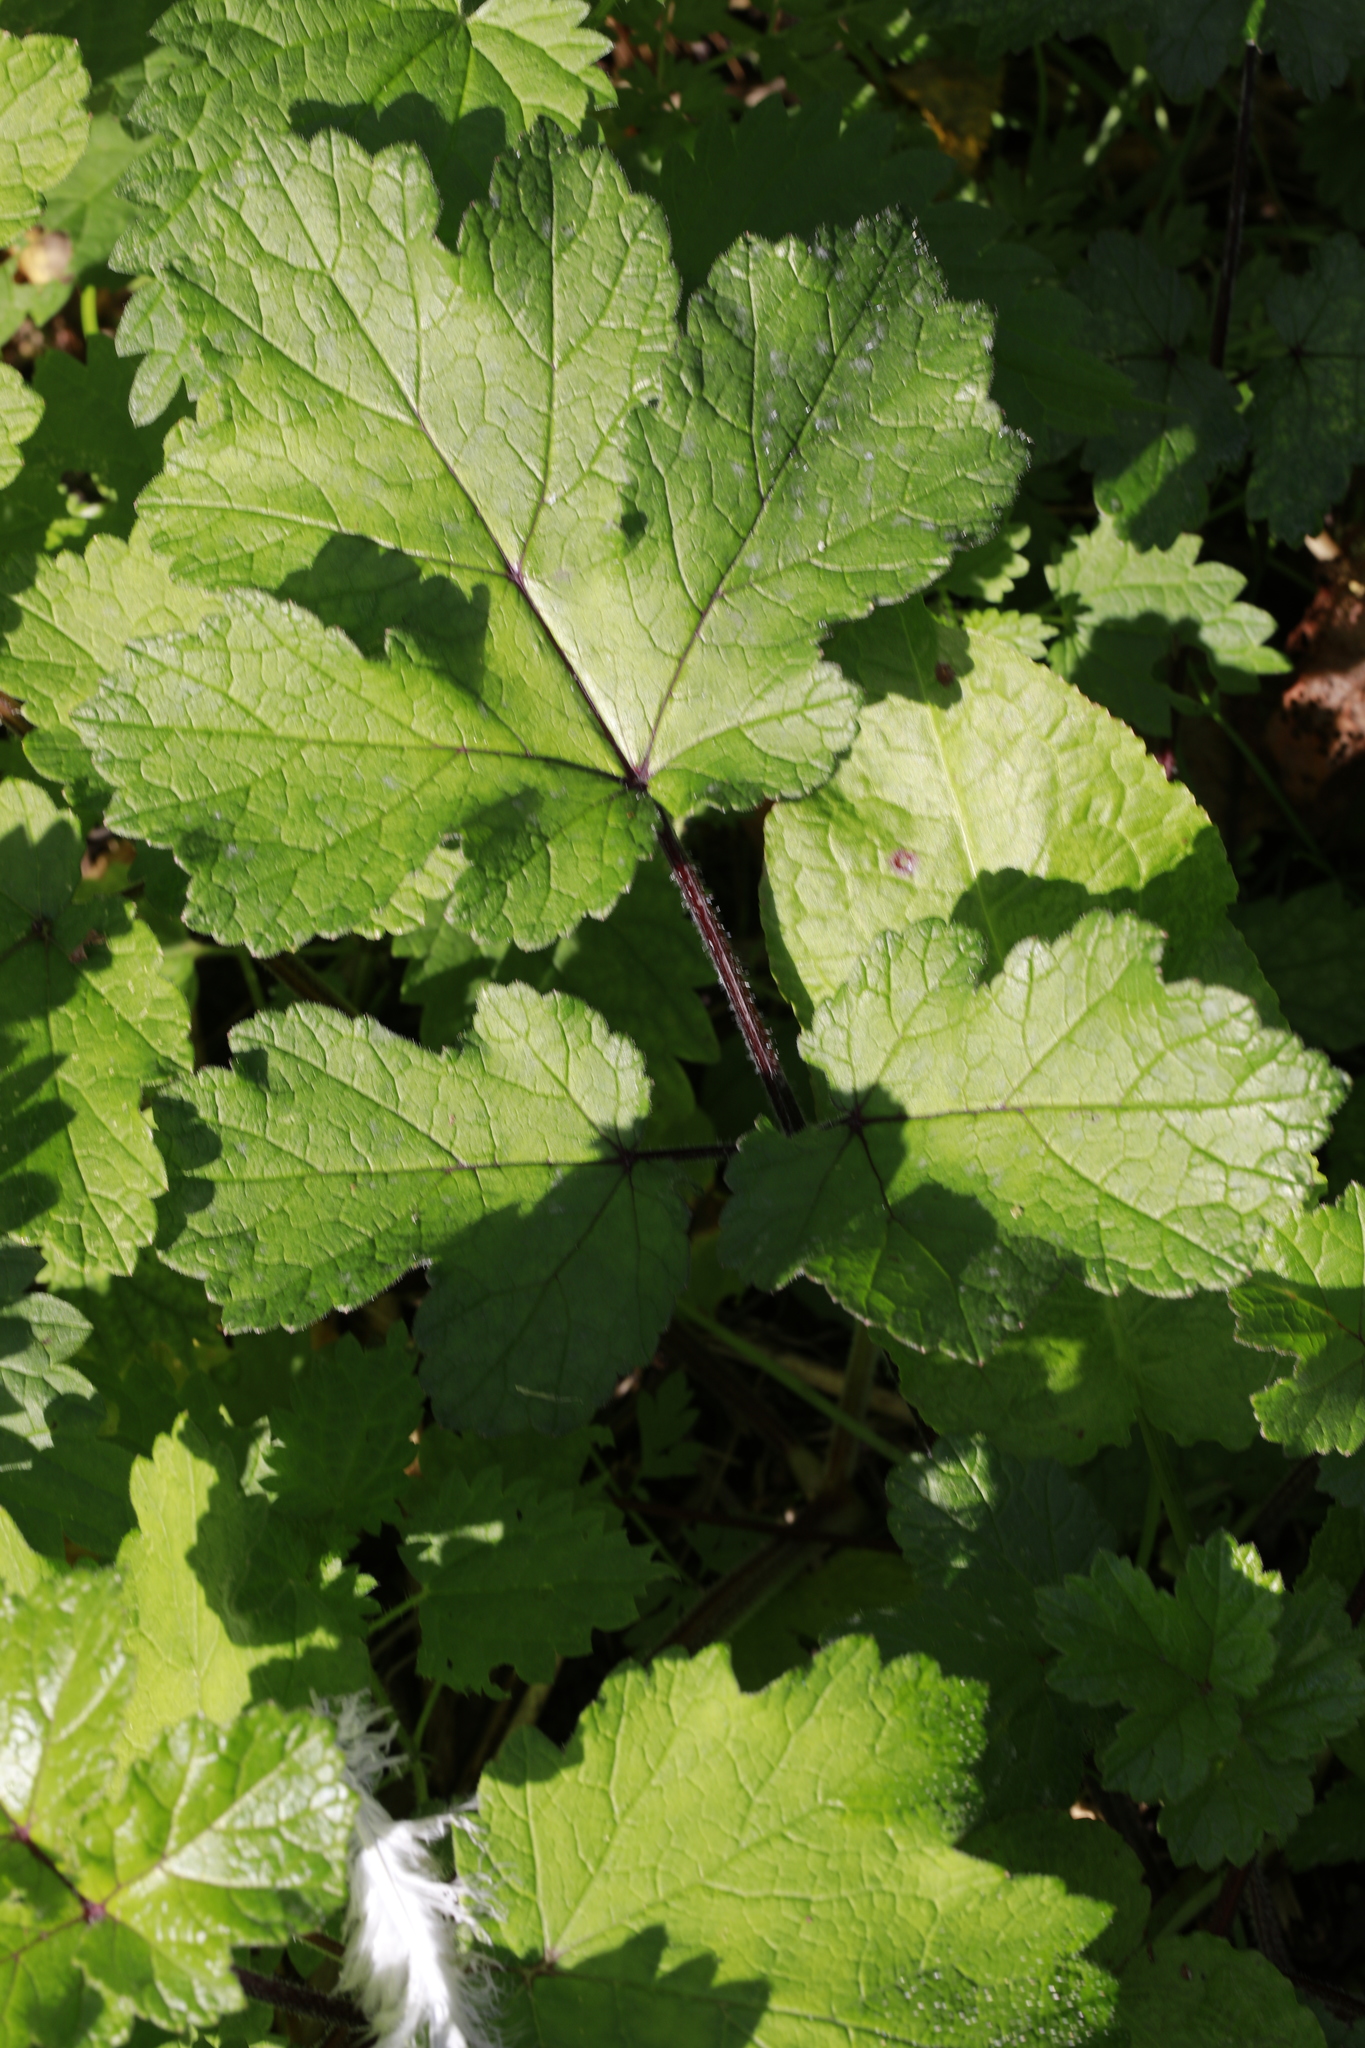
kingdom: Plantae
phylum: Tracheophyta
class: Magnoliopsida
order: Apiales
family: Apiaceae
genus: Heracleum
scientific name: Heracleum sphondylium
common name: Hogweed
